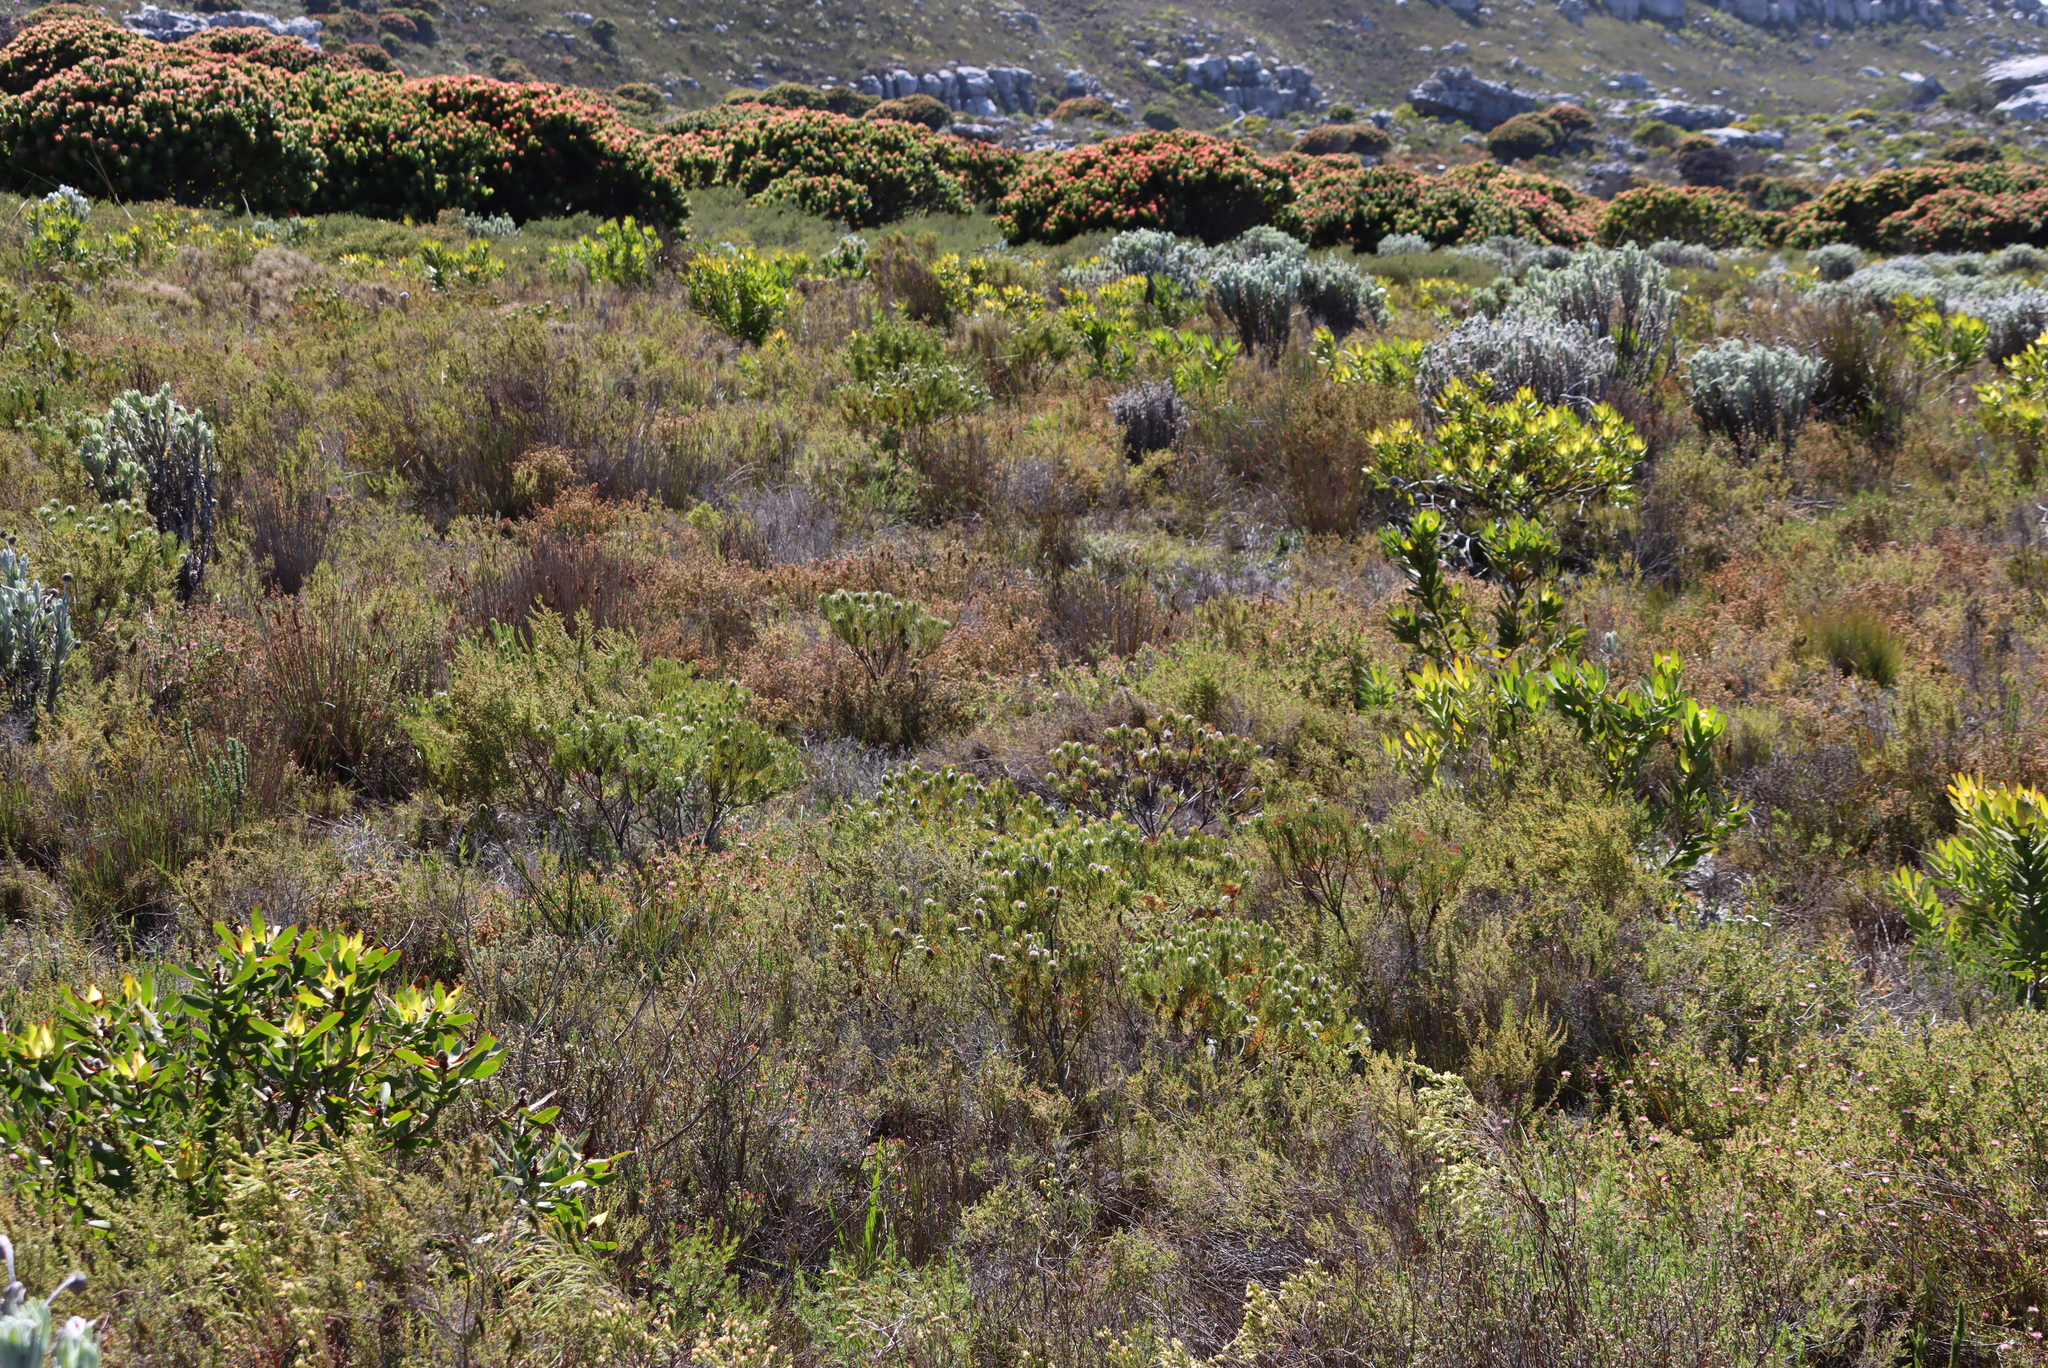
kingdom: Plantae
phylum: Tracheophyta
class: Magnoliopsida
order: Proteales
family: Proteaceae
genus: Serruria
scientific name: Serruria villosa
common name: Golden spiderhead
